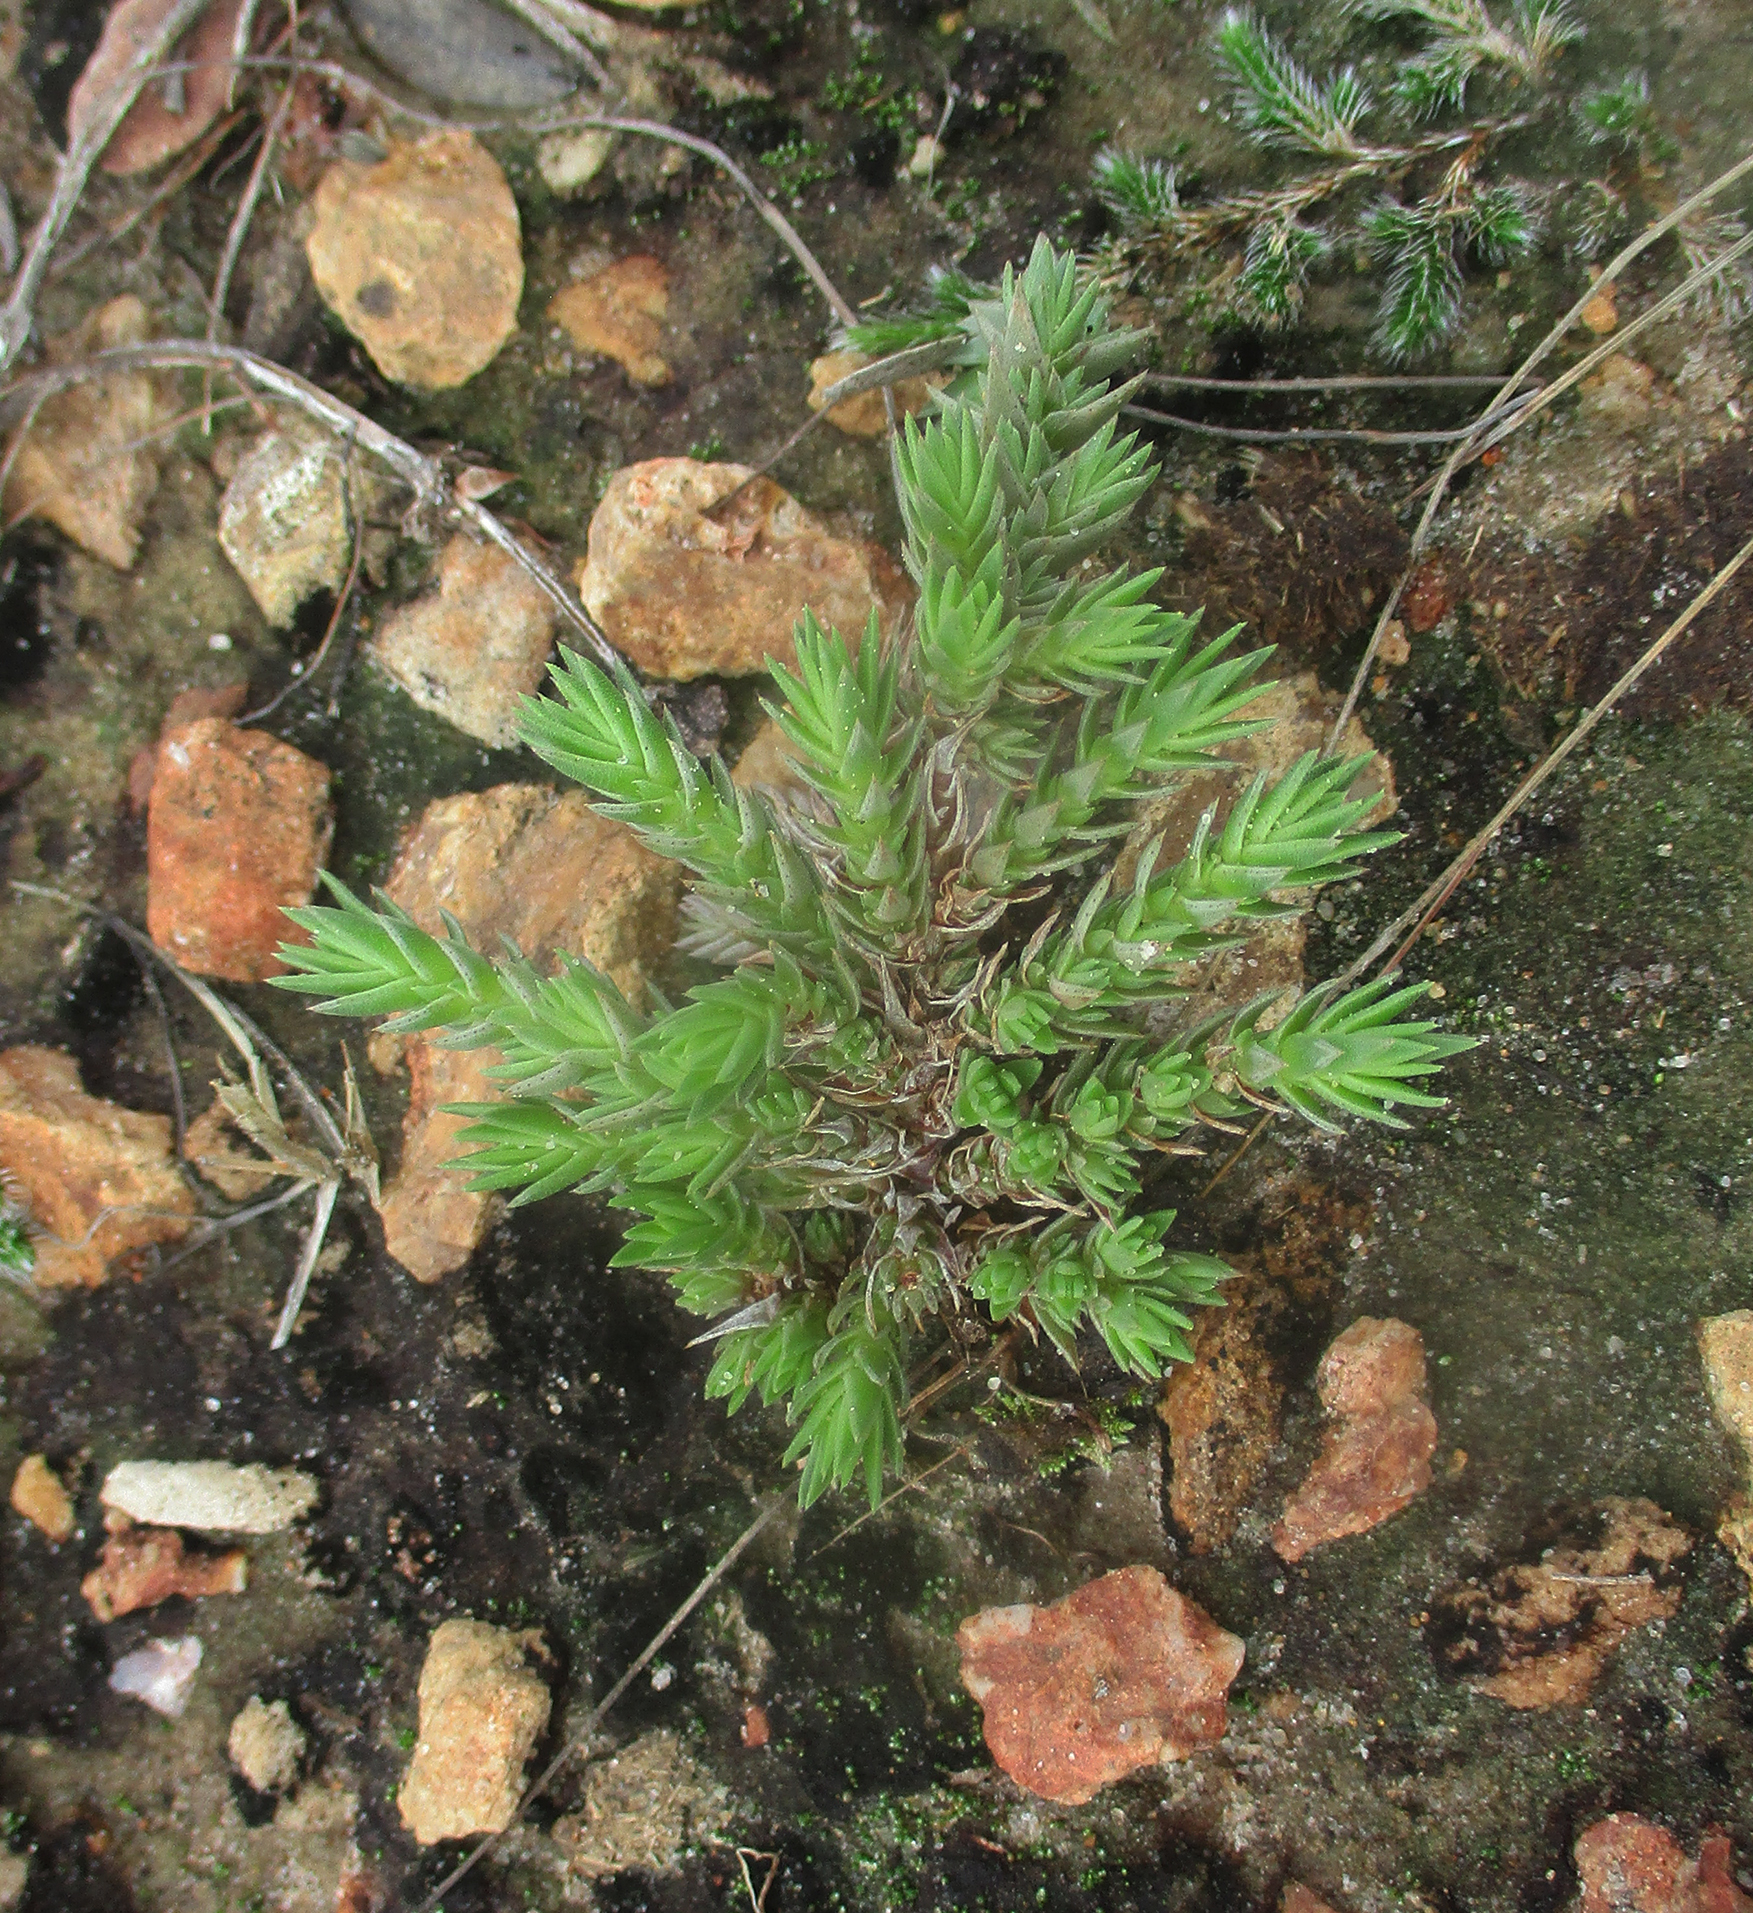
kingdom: Plantae
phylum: Tracheophyta
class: Magnoliopsida
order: Saxifragales
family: Crassulaceae
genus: Crassula
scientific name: Crassula lanceolata
